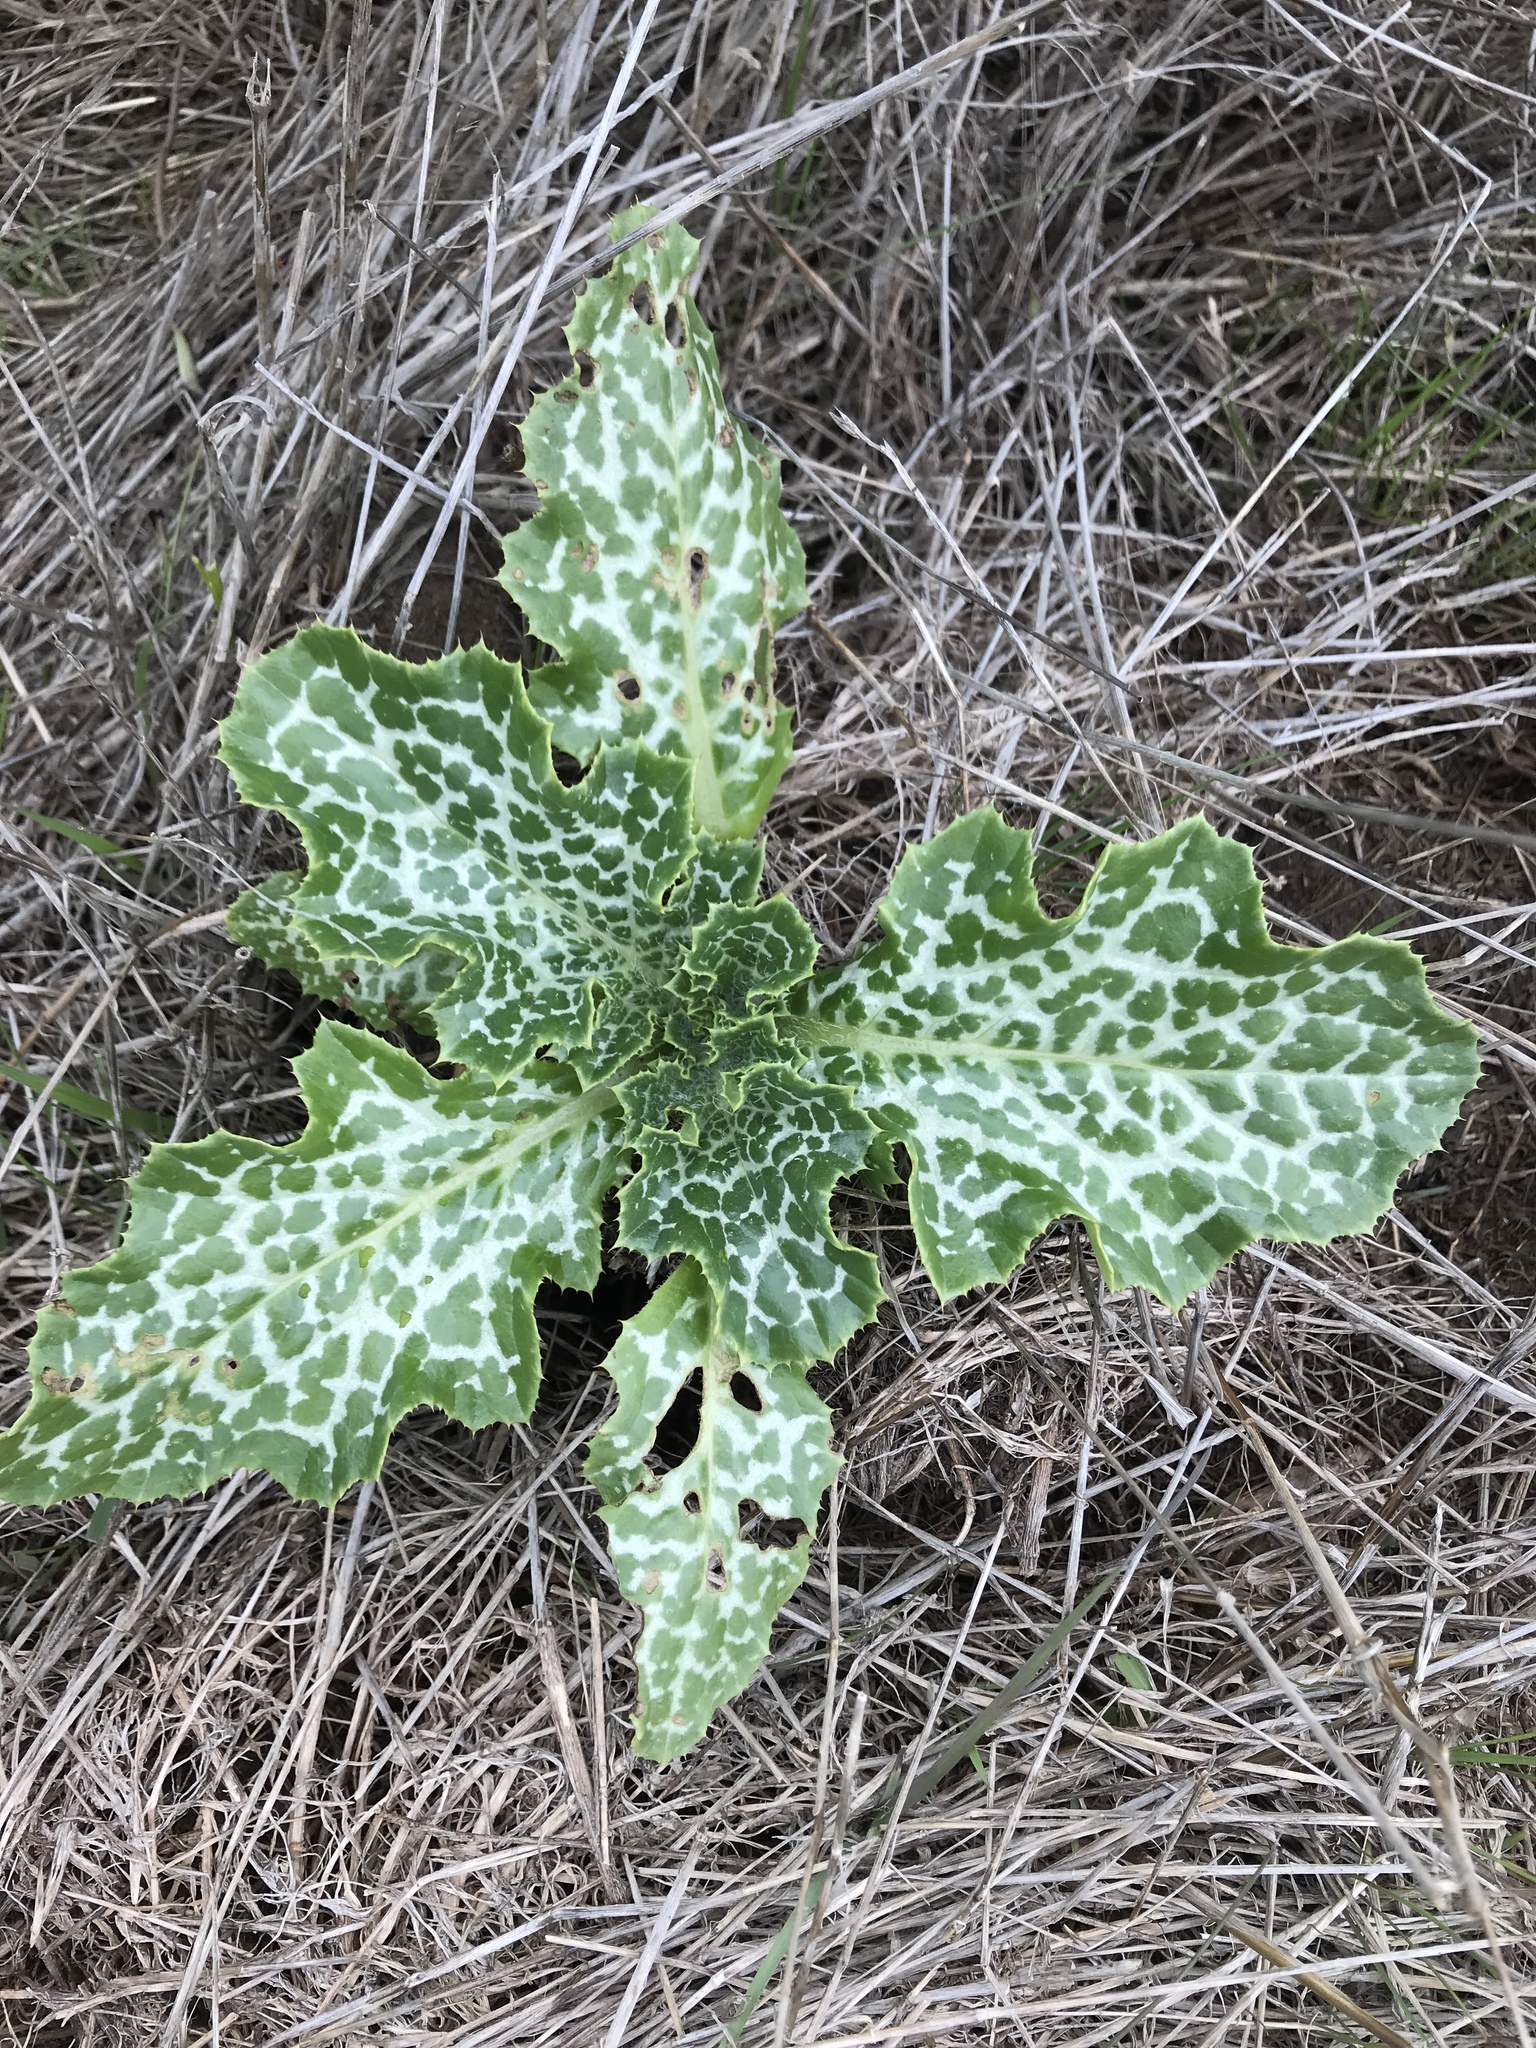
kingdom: Plantae
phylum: Tracheophyta
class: Magnoliopsida
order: Asterales
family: Asteraceae
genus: Silybum
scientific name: Silybum marianum
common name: Milk thistle
